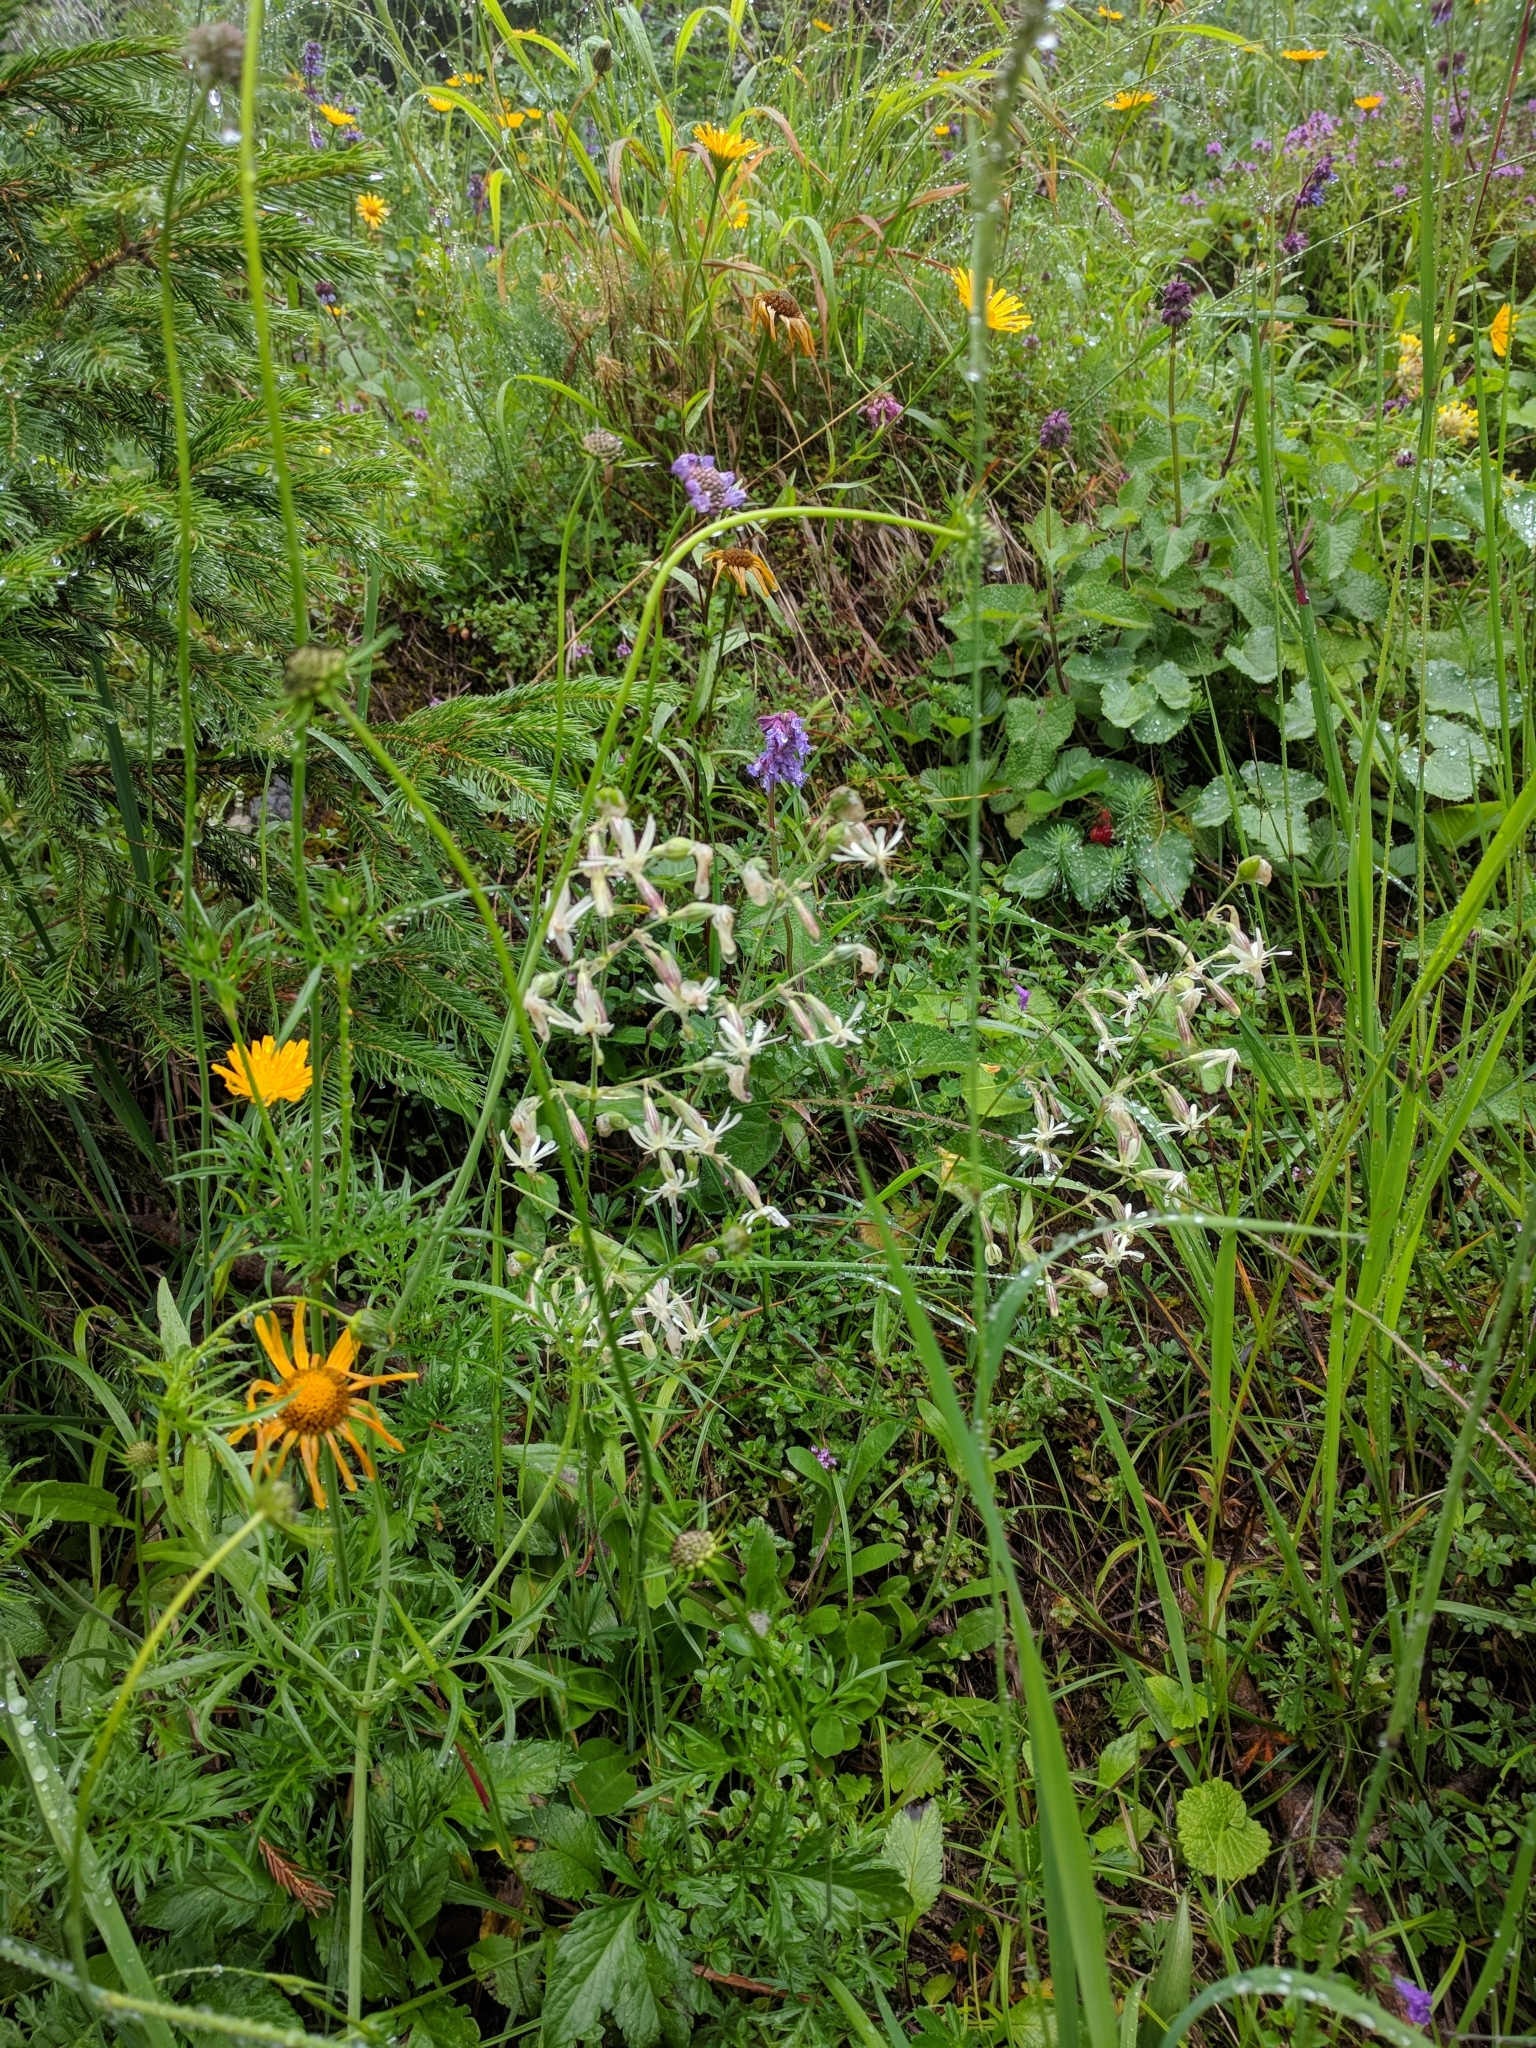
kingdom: Plantae
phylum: Tracheophyta
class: Magnoliopsida
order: Caryophyllales
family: Caryophyllaceae
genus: Silene
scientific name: Silene nutans
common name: Nottingham catchfly
